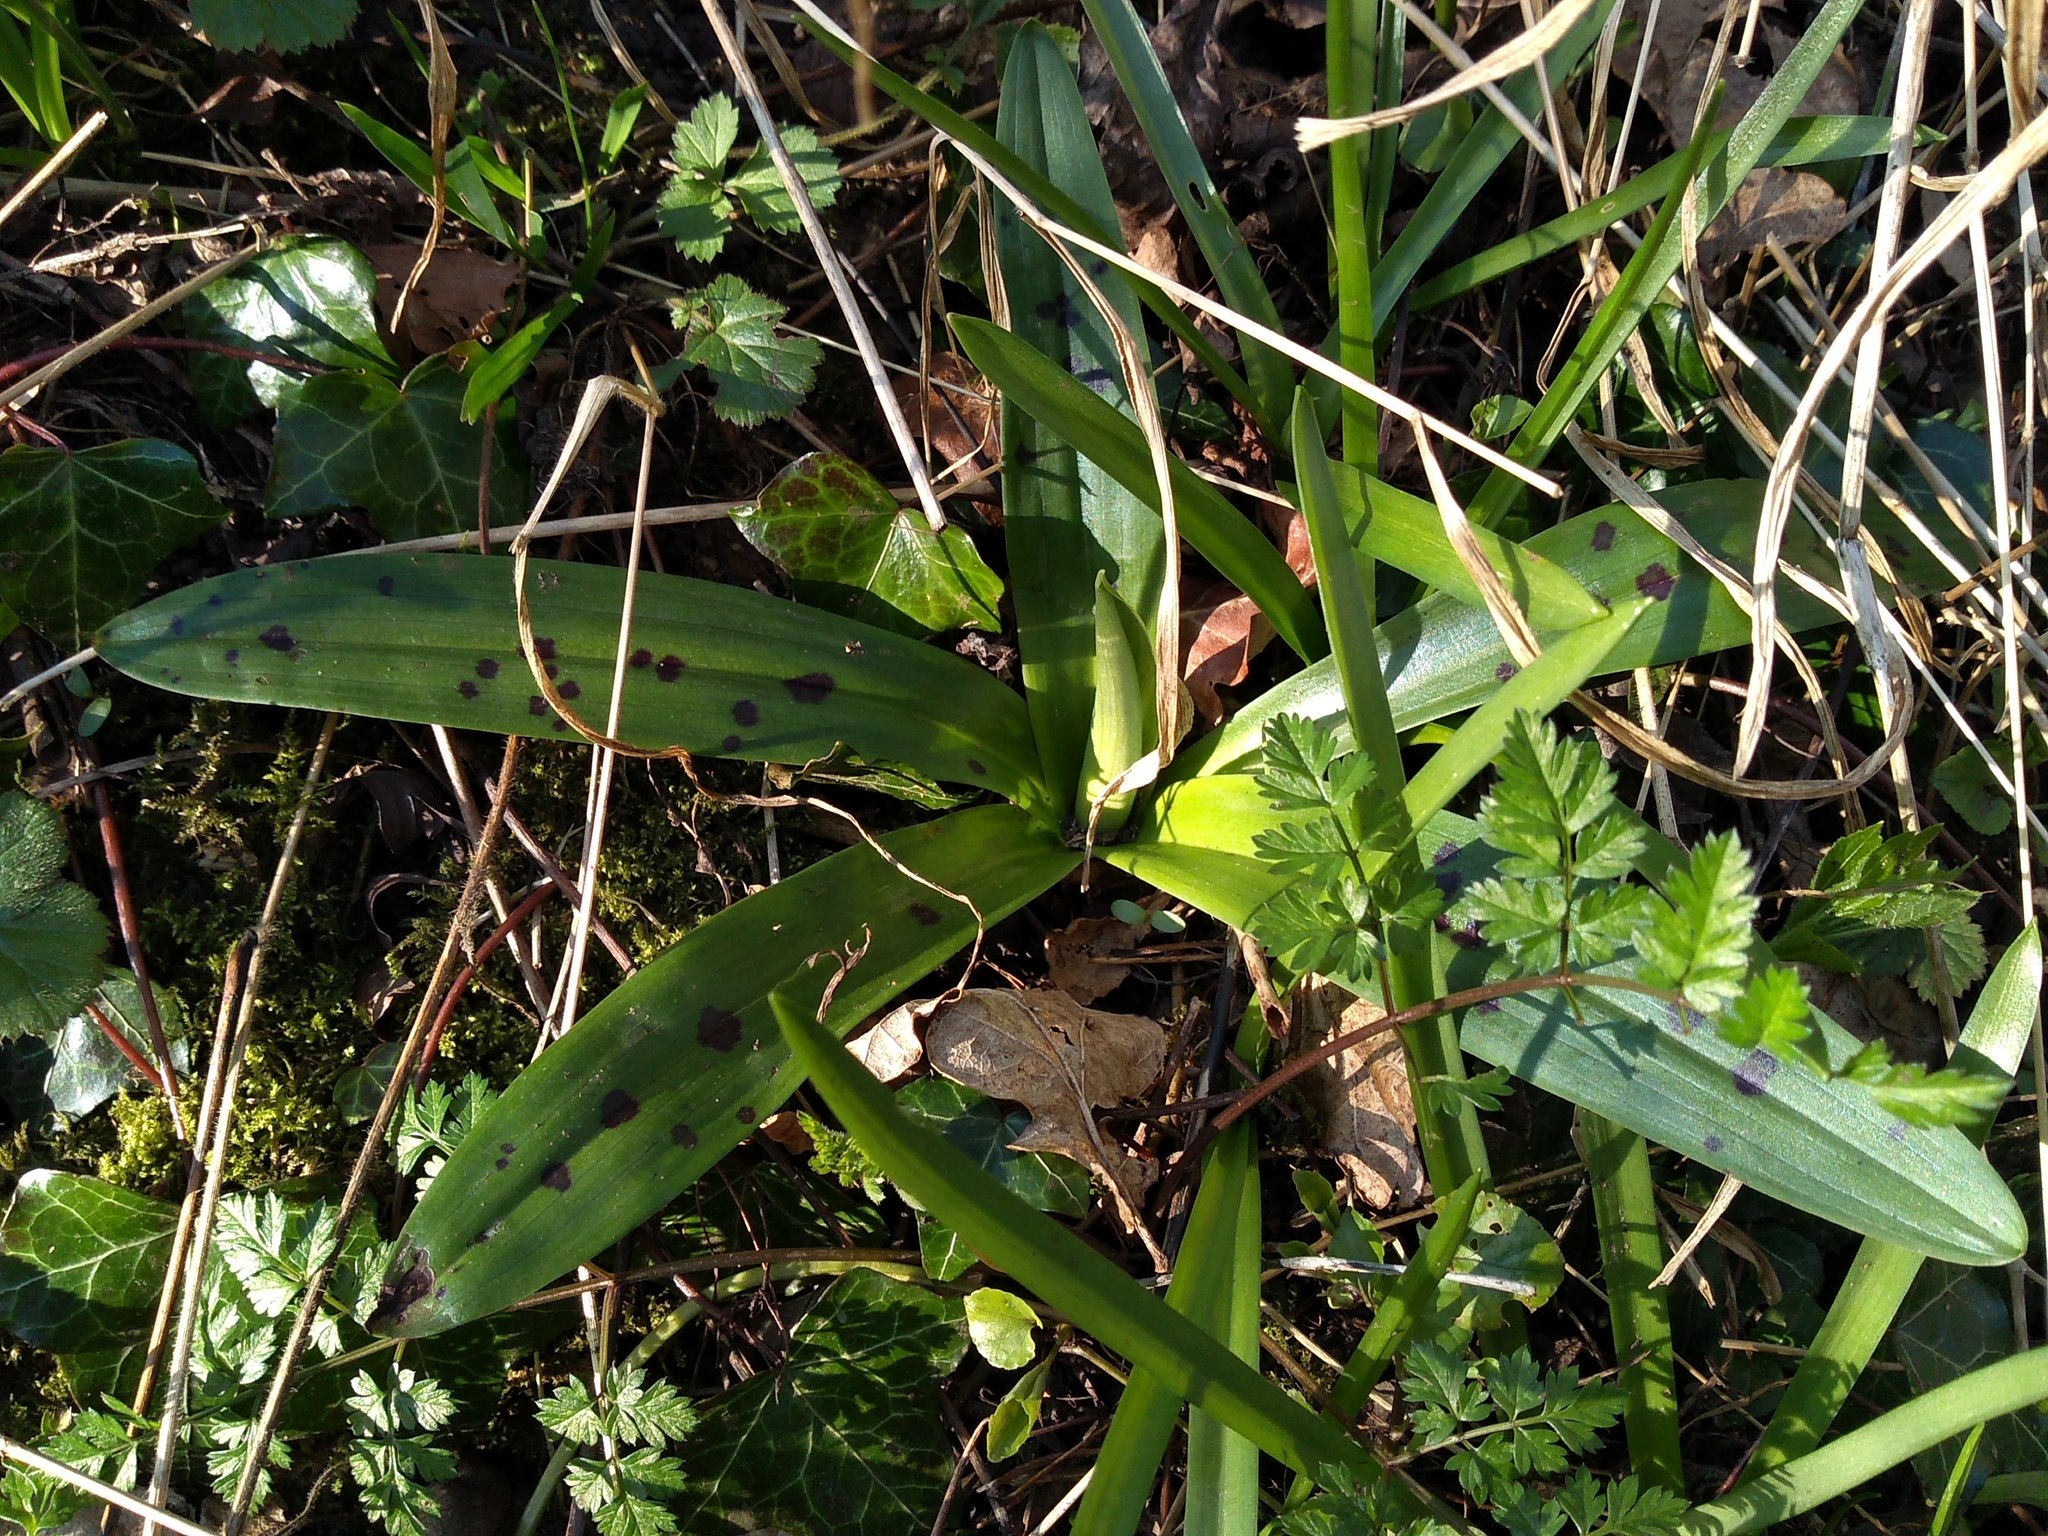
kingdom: Plantae
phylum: Tracheophyta
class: Liliopsida
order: Asparagales
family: Orchidaceae
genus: Orchis
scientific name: Orchis mascula
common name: Early-purple orchid
